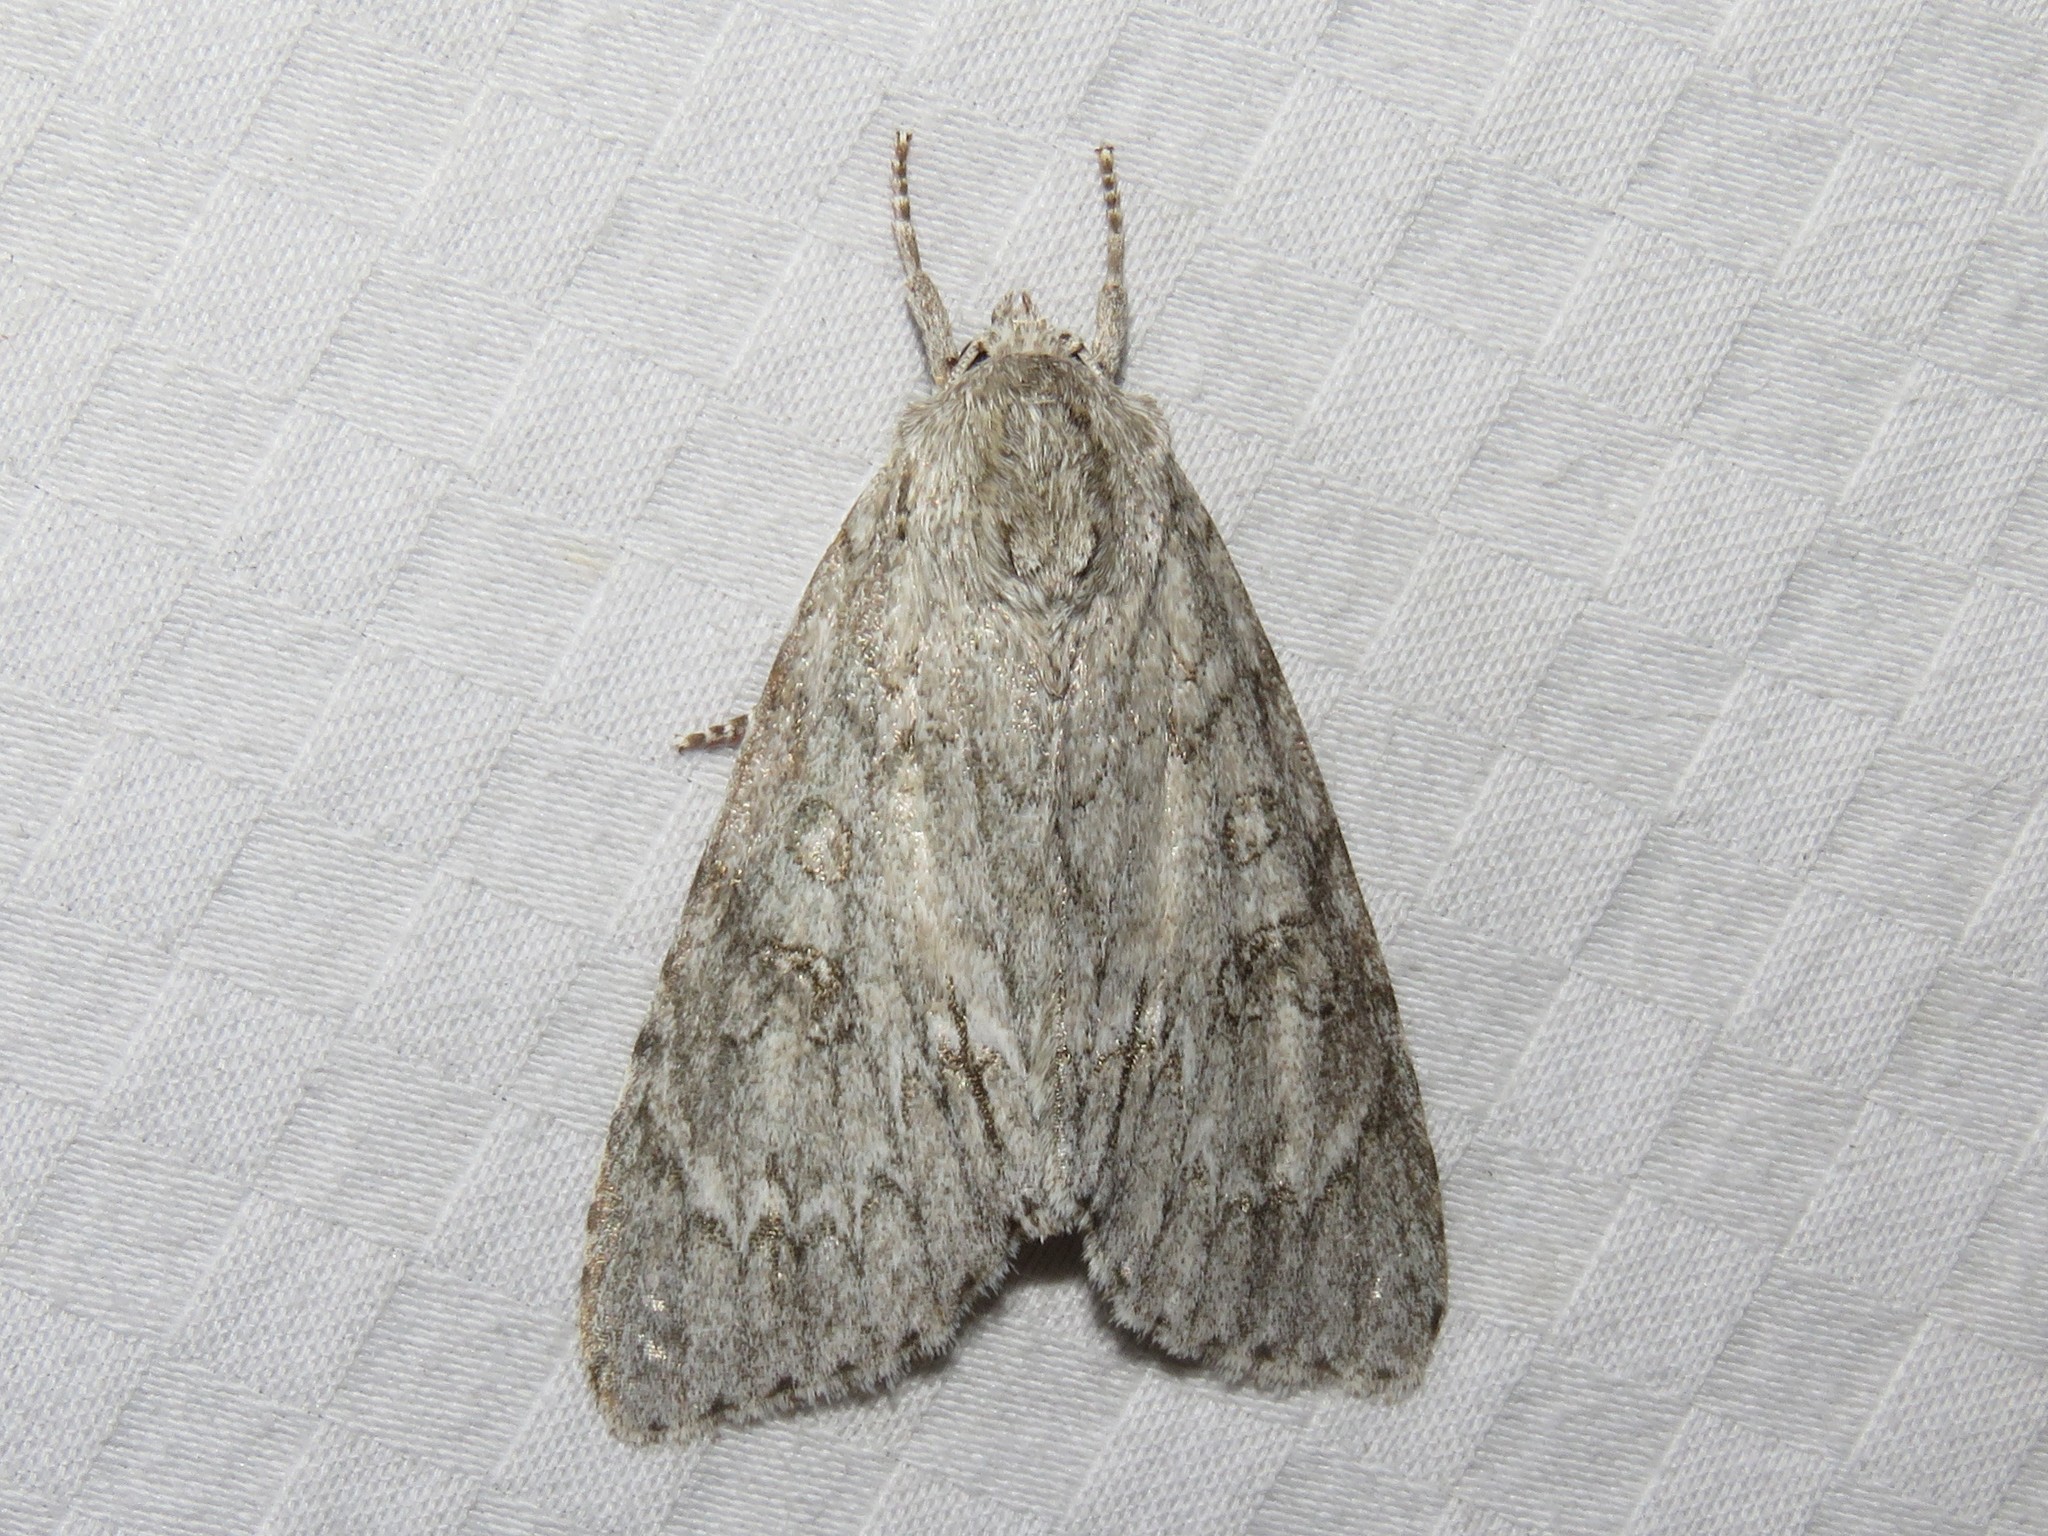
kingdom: Animalia
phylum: Arthropoda
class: Insecta
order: Lepidoptera
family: Noctuidae
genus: Acronicta
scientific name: Acronicta americana
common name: American dagger
